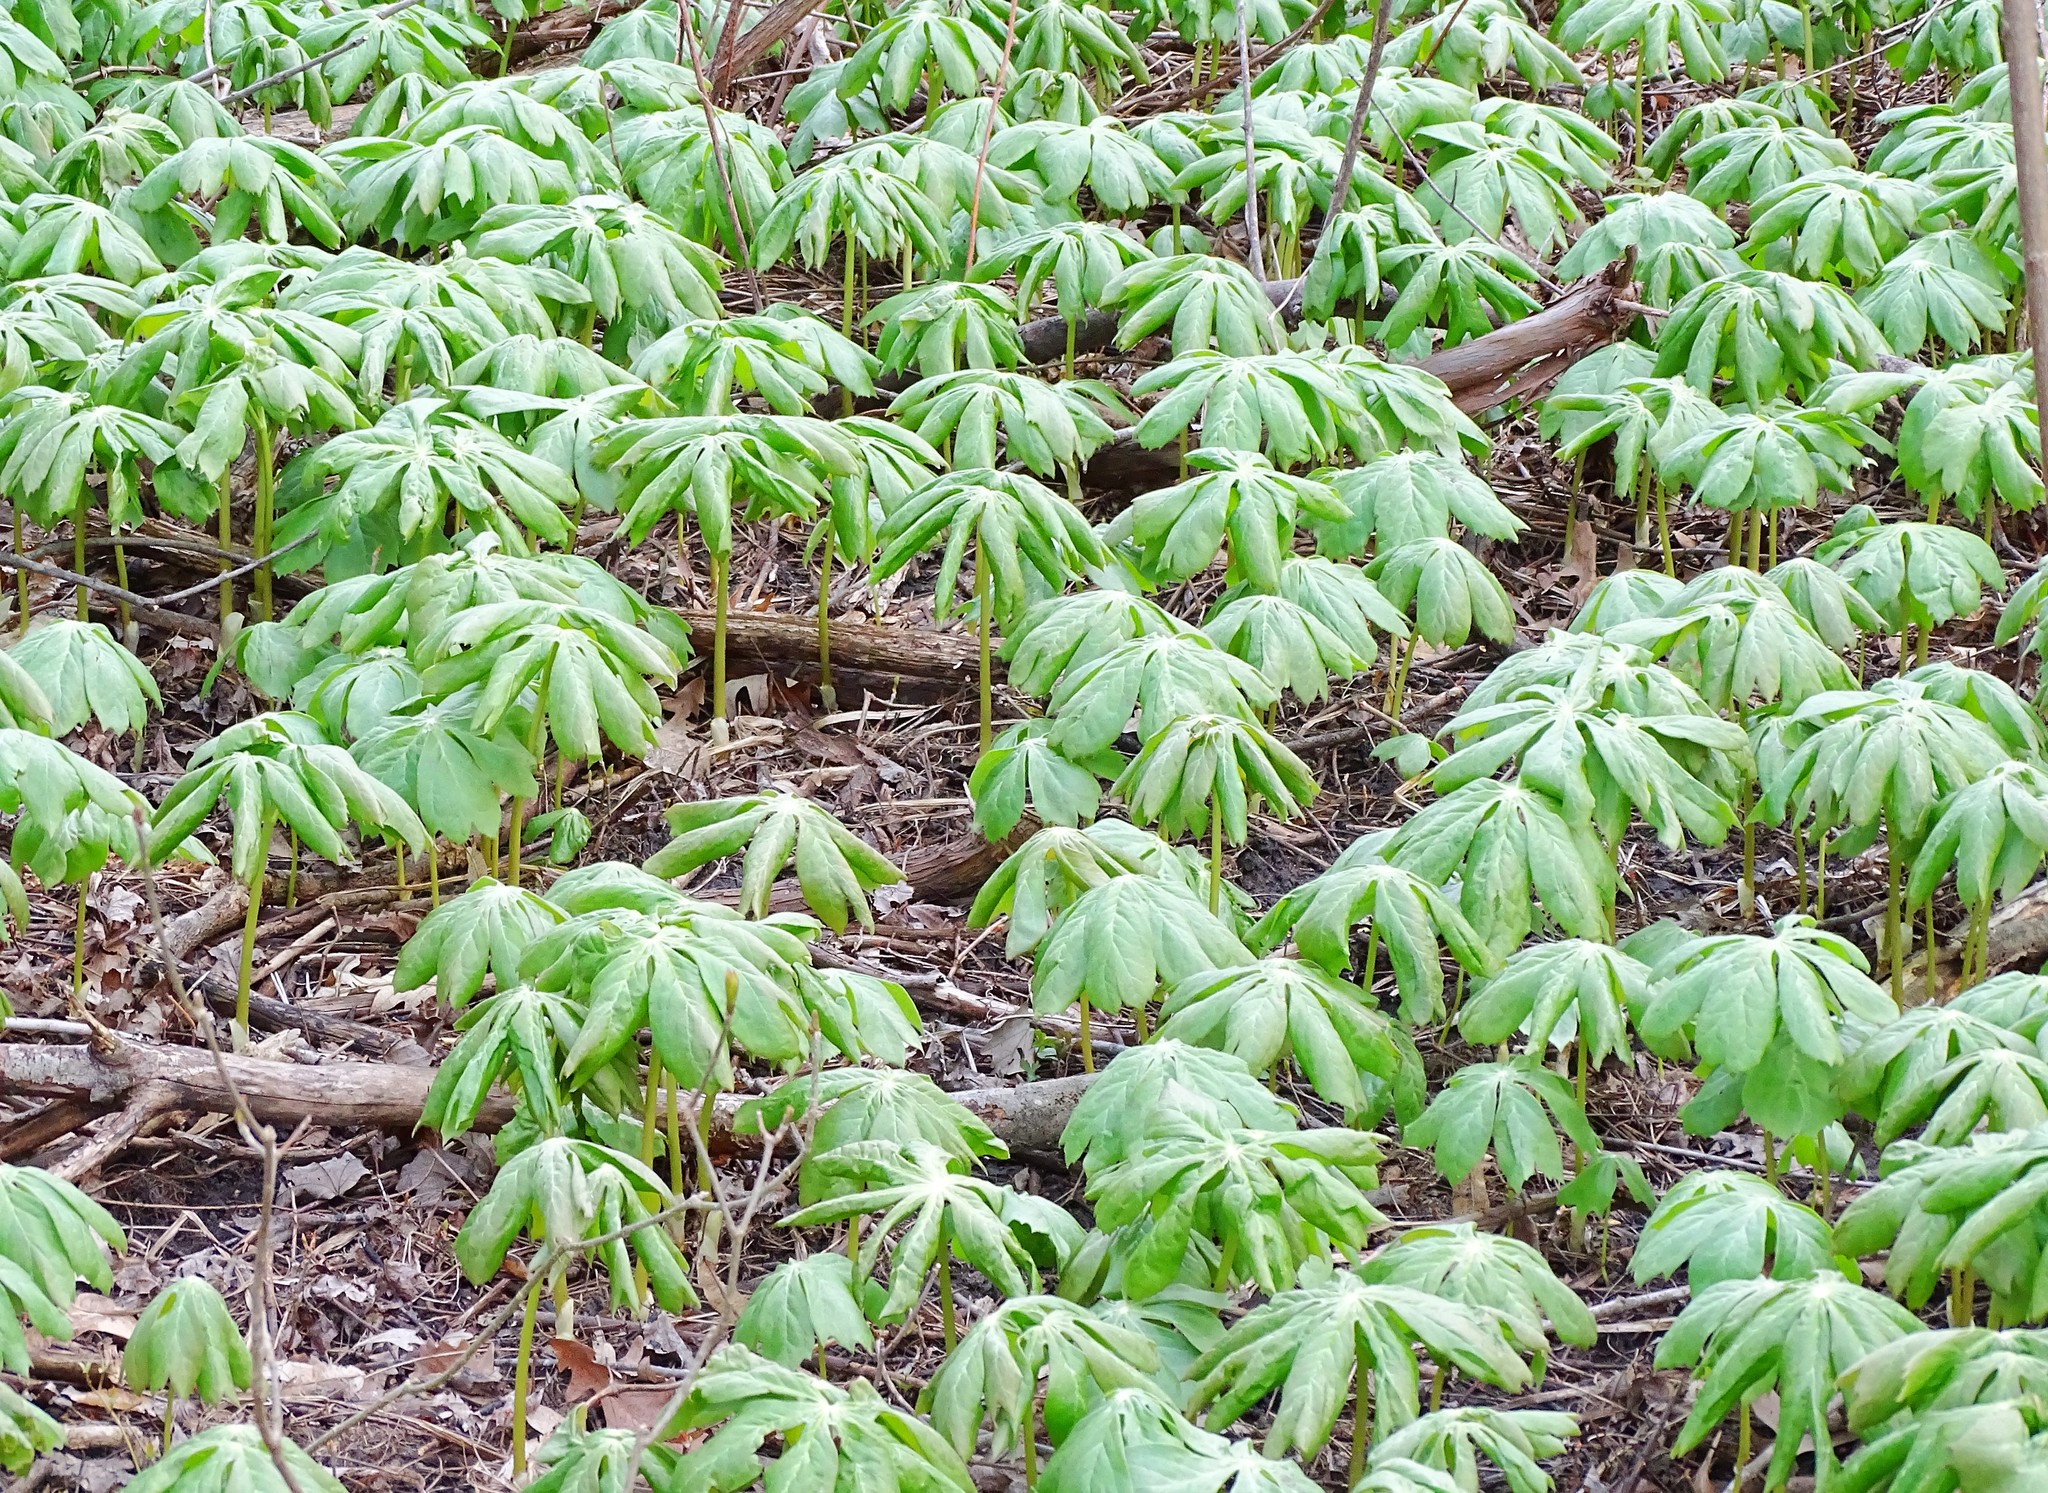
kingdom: Plantae
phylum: Tracheophyta
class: Magnoliopsida
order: Ranunculales
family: Berberidaceae
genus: Podophyllum
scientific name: Podophyllum peltatum
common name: Wild mandrake
